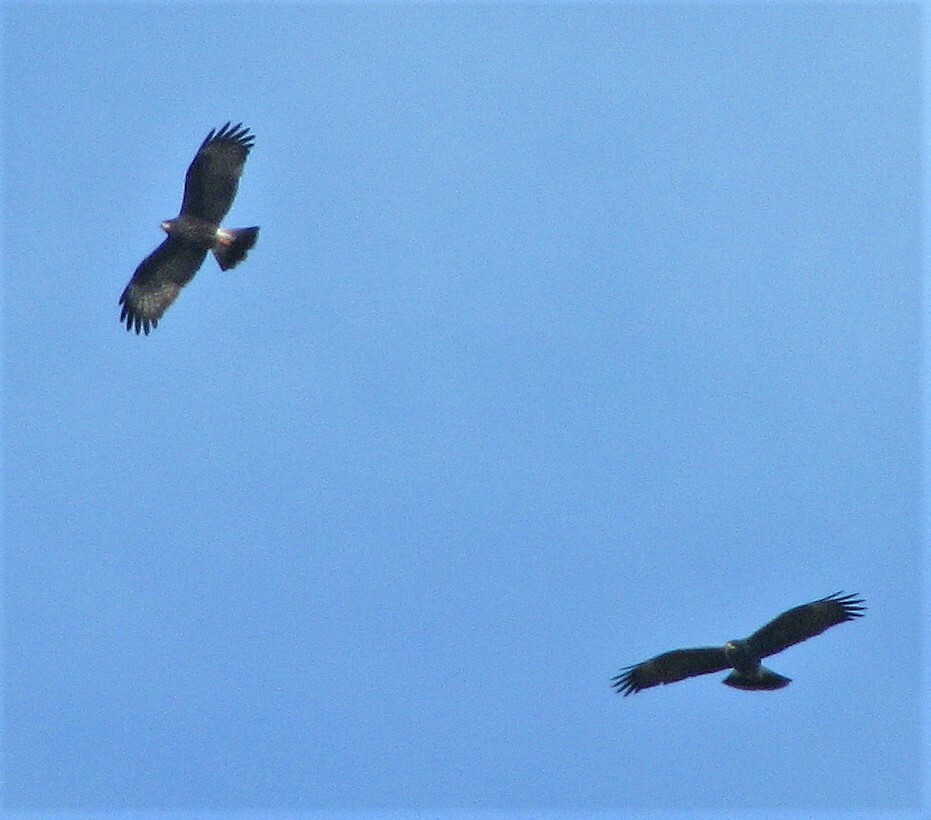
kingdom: Animalia
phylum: Chordata
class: Aves
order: Accipitriformes
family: Accipitridae
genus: Rostrhamus
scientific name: Rostrhamus sociabilis
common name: Snail kite
